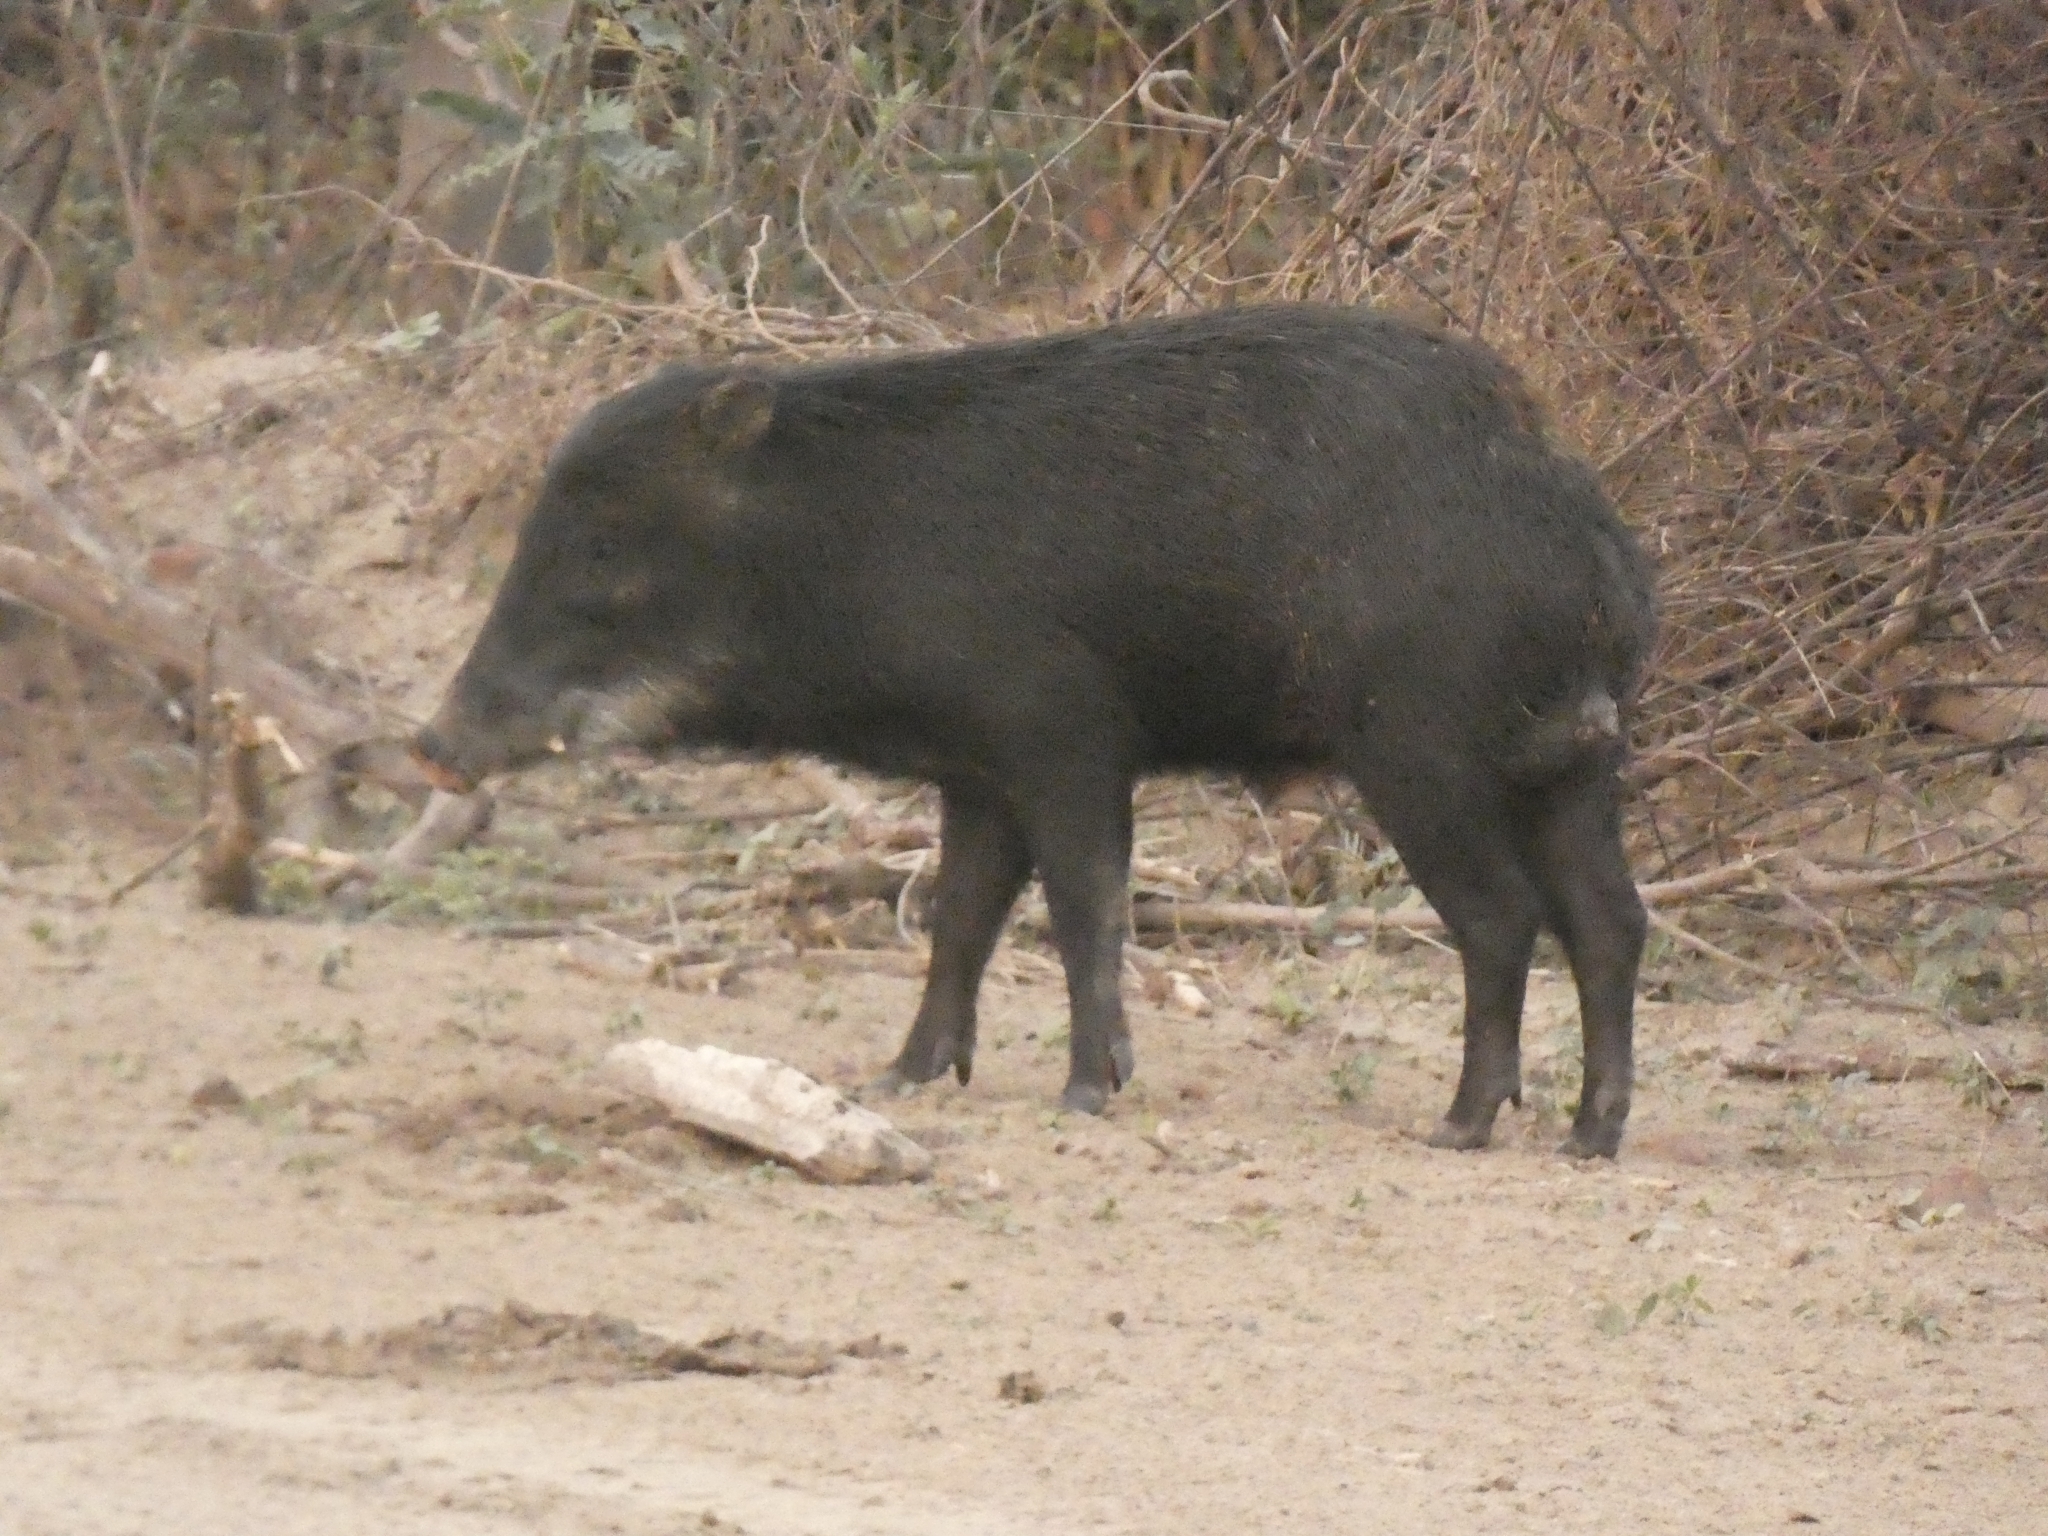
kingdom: Animalia
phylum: Chordata
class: Mammalia
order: Artiodactyla
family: Tayassuidae
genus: Tayassu
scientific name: Tayassu pecari
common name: White-lipped peccary
